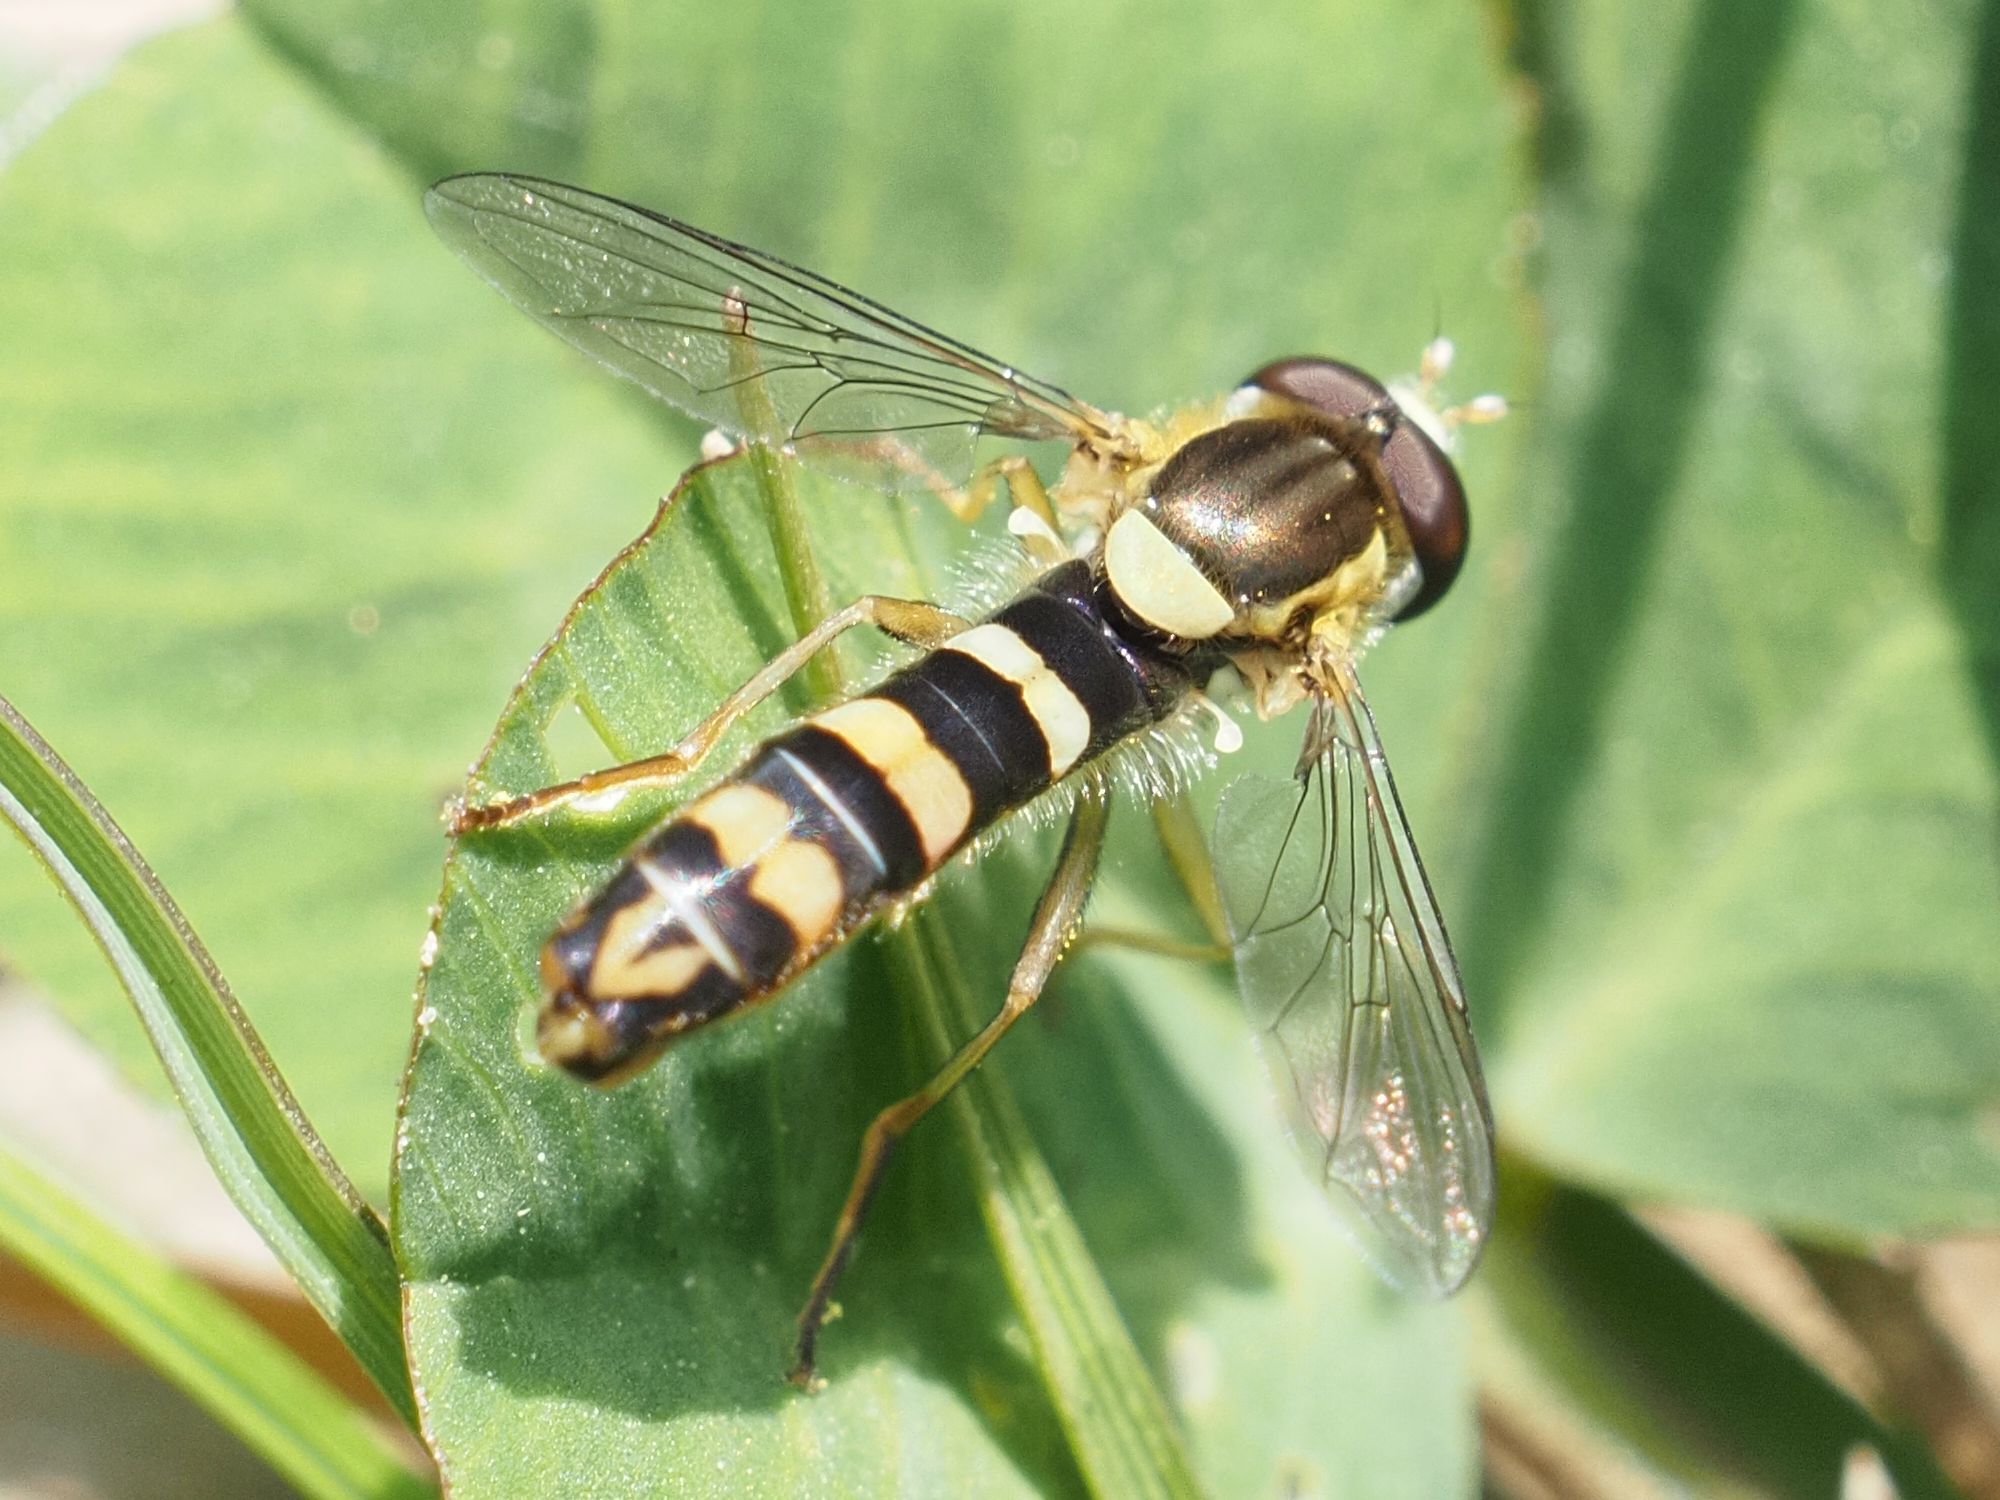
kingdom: Animalia
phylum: Arthropoda
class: Insecta
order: Diptera
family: Syrphidae
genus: Sphaerophoria
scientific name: Sphaerophoria
